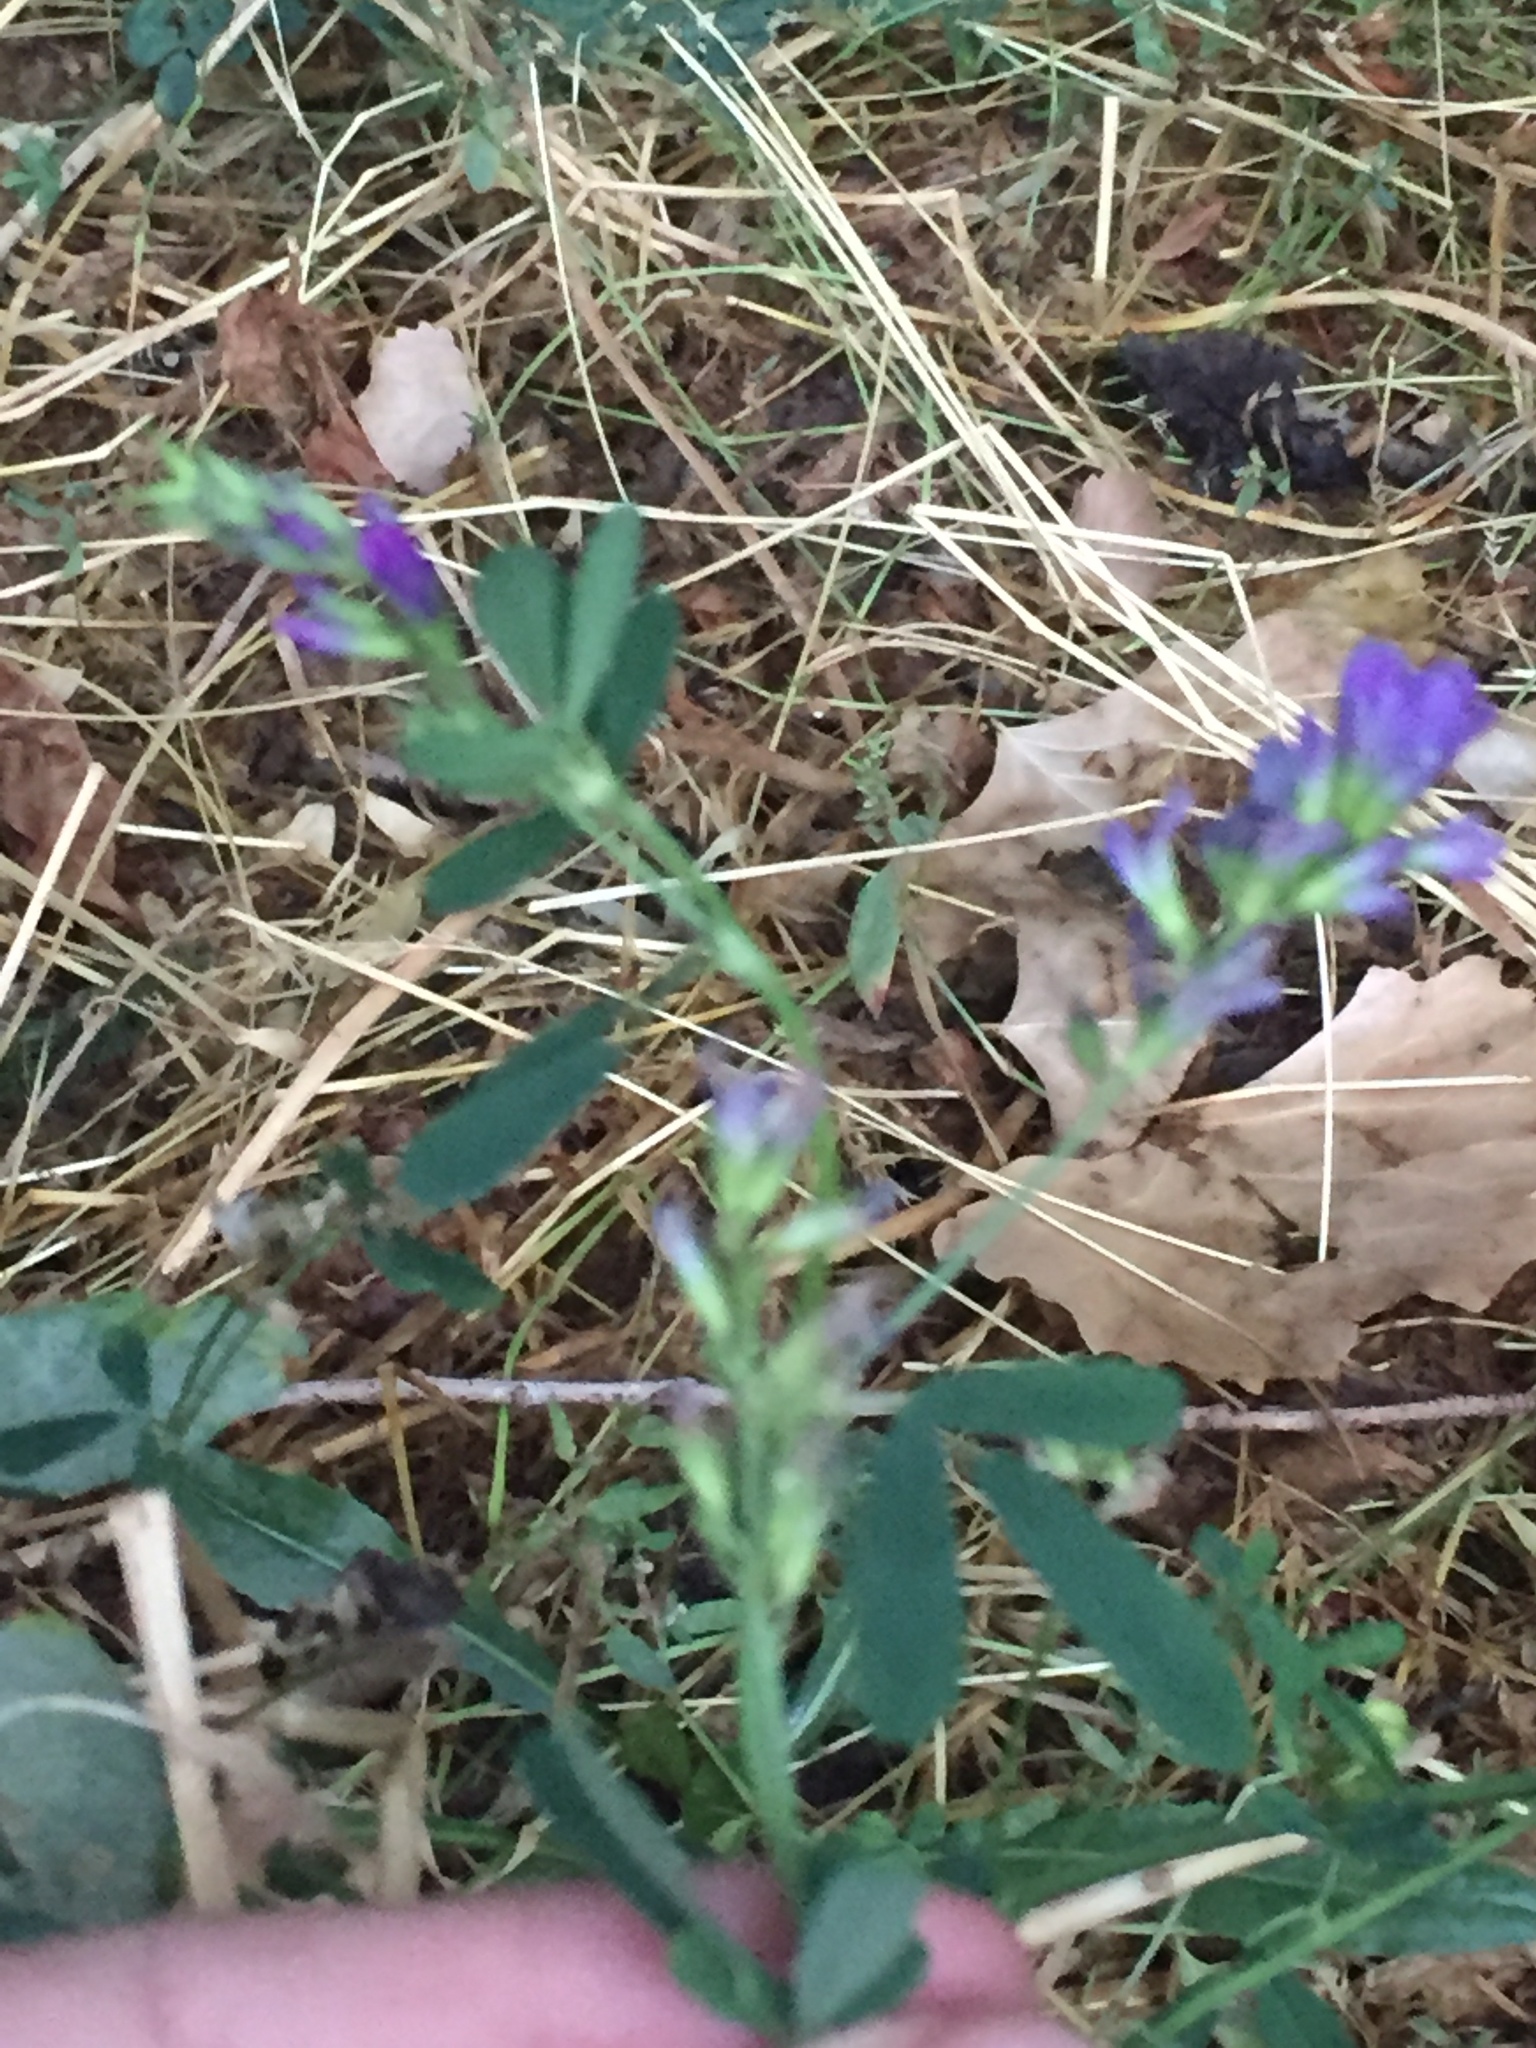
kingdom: Plantae
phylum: Tracheophyta
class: Magnoliopsida
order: Fabales
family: Fabaceae
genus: Medicago
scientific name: Medicago sativa
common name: Alfalfa
